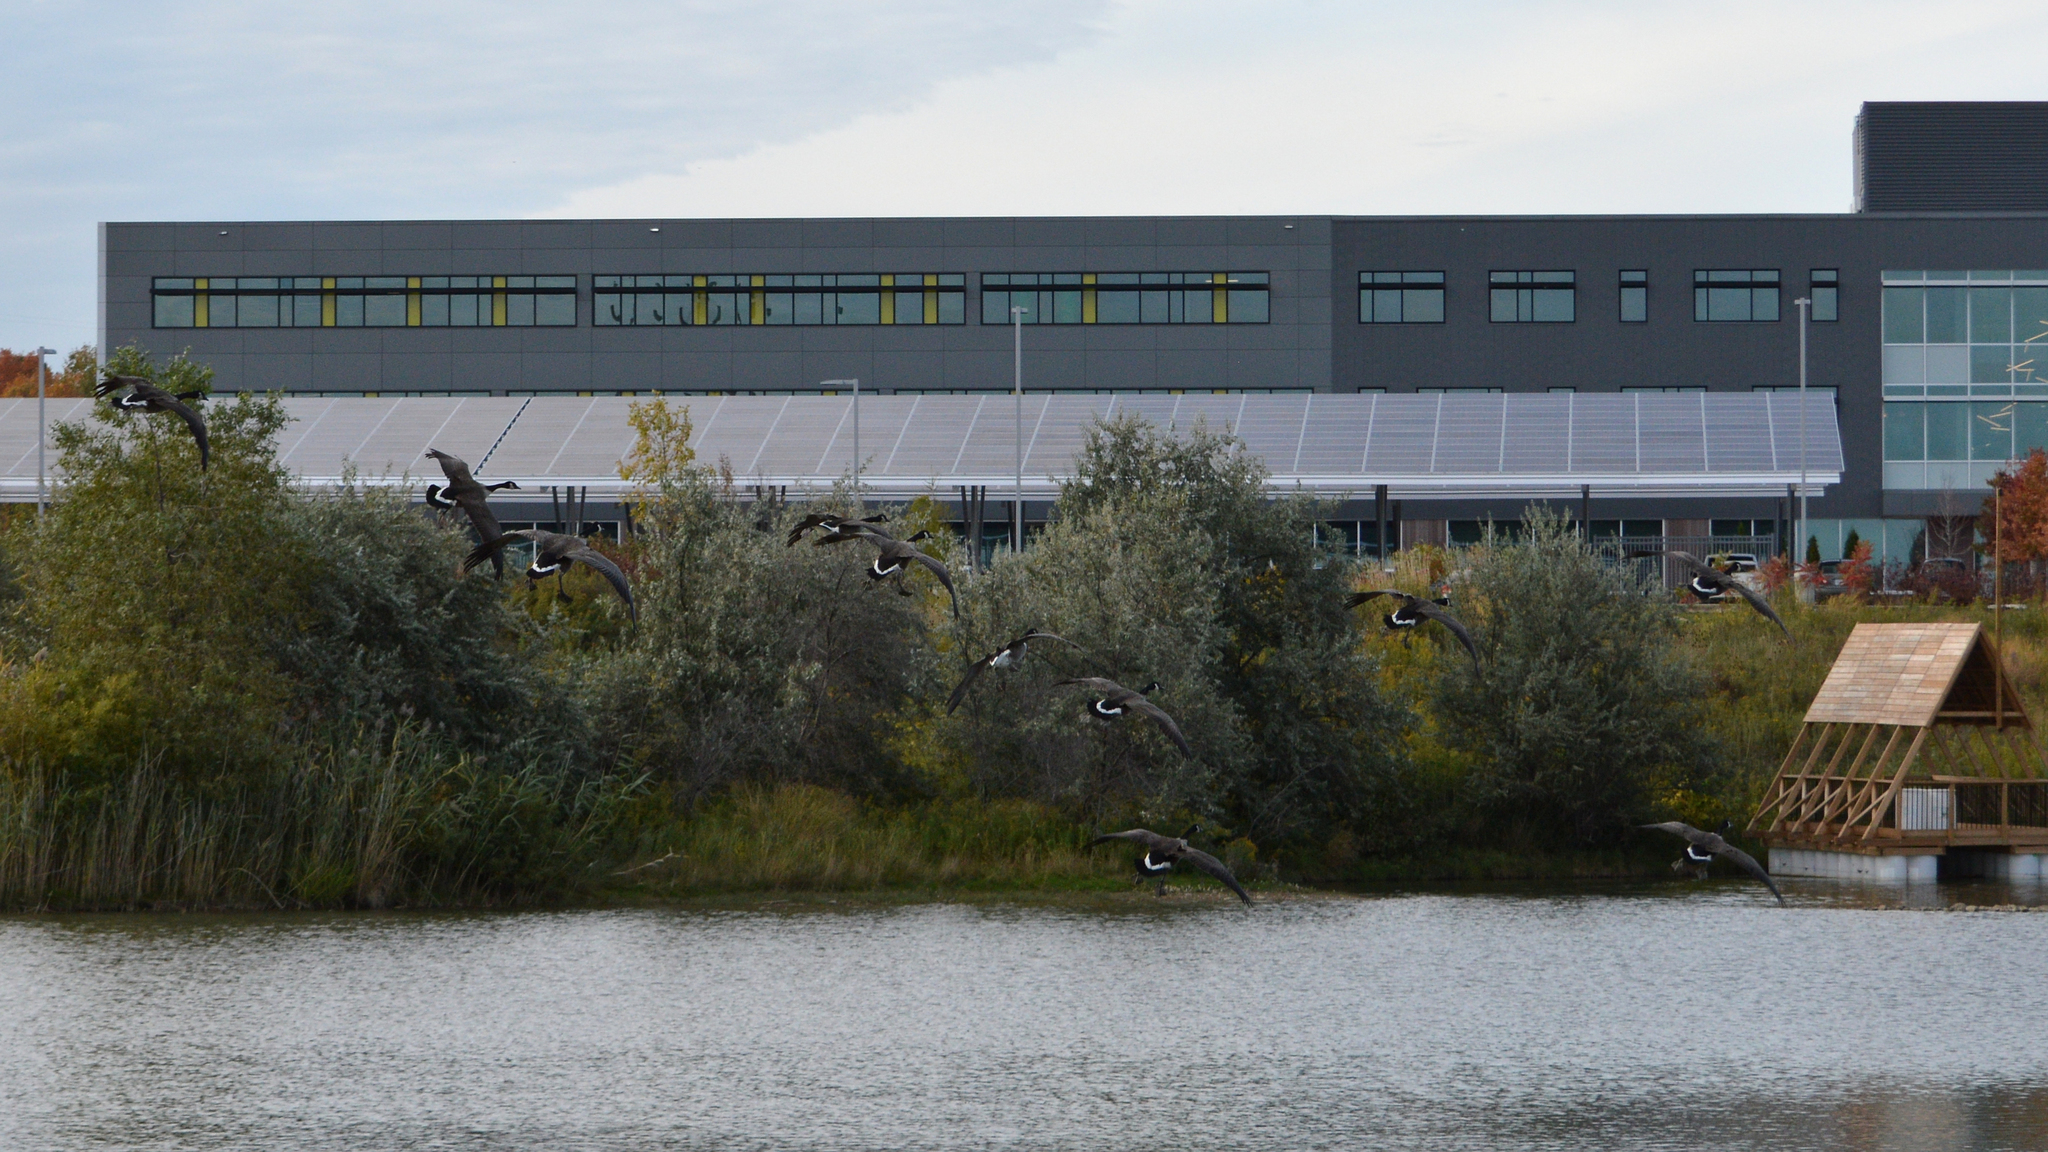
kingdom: Animalia
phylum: Chordata
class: Aves
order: Anseriformes
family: Anatidae
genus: Branta
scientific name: Branta canadensis
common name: Canada goose
